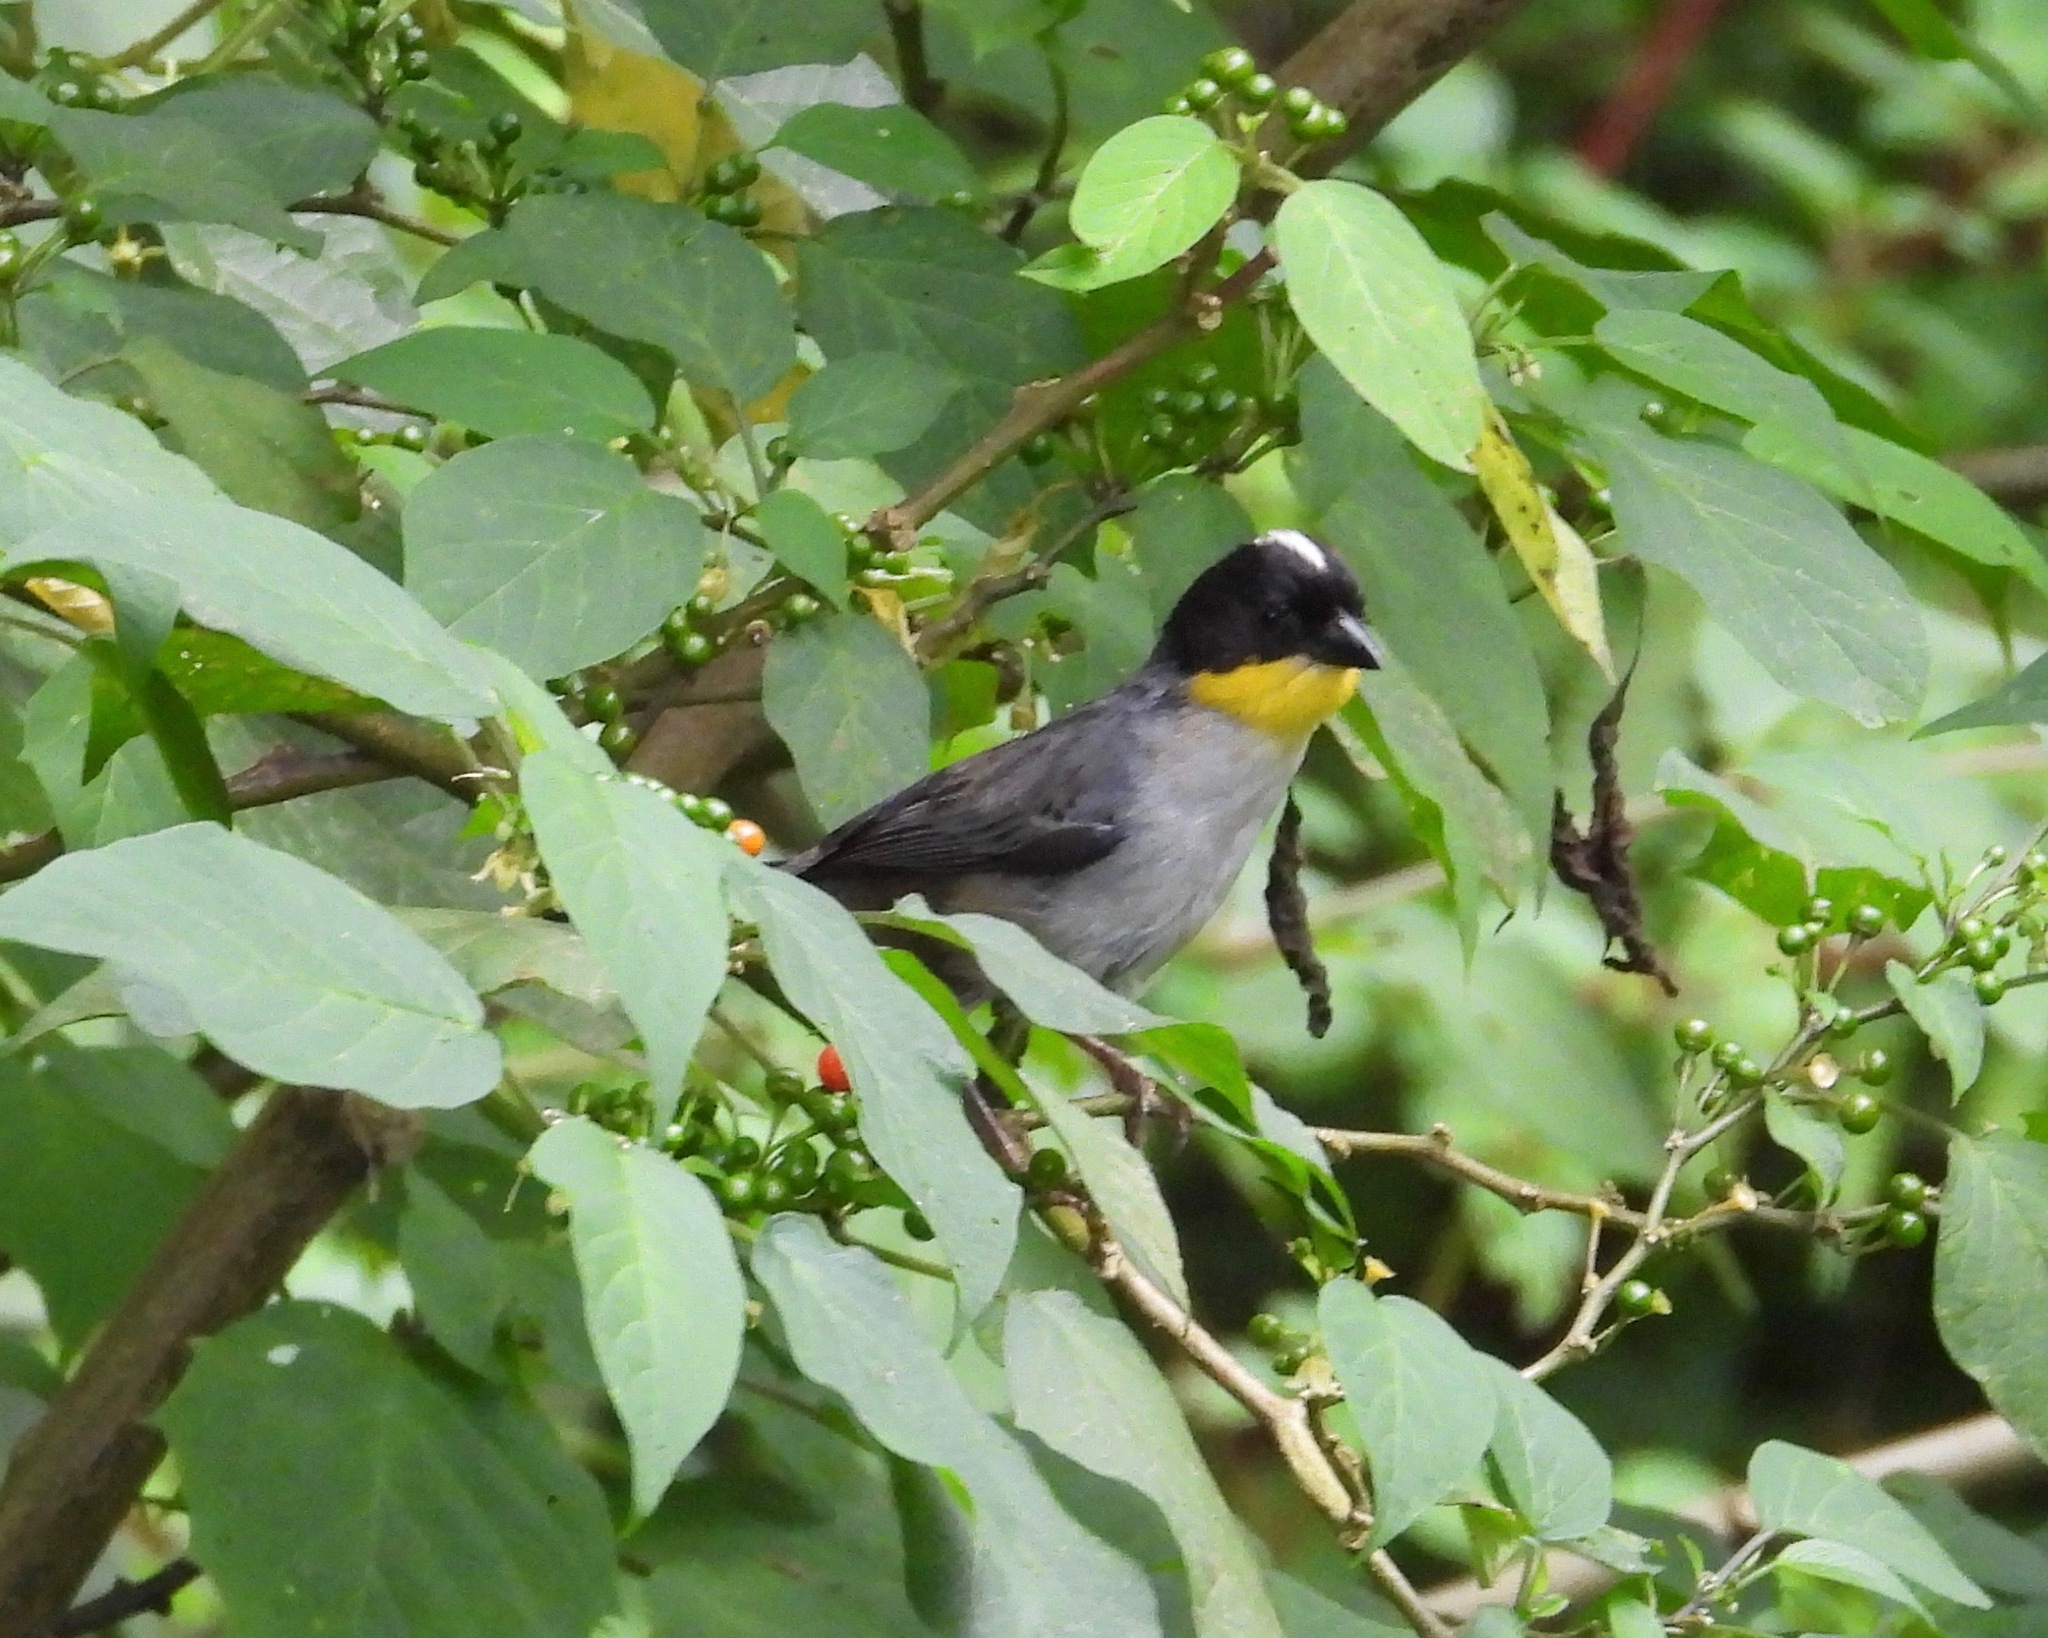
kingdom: Animalia
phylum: Chordata
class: Aves
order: Passeriformes
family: Passerellidae
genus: Atlapetes
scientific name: Atlapetes albinucha
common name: White-naped brush-finch
